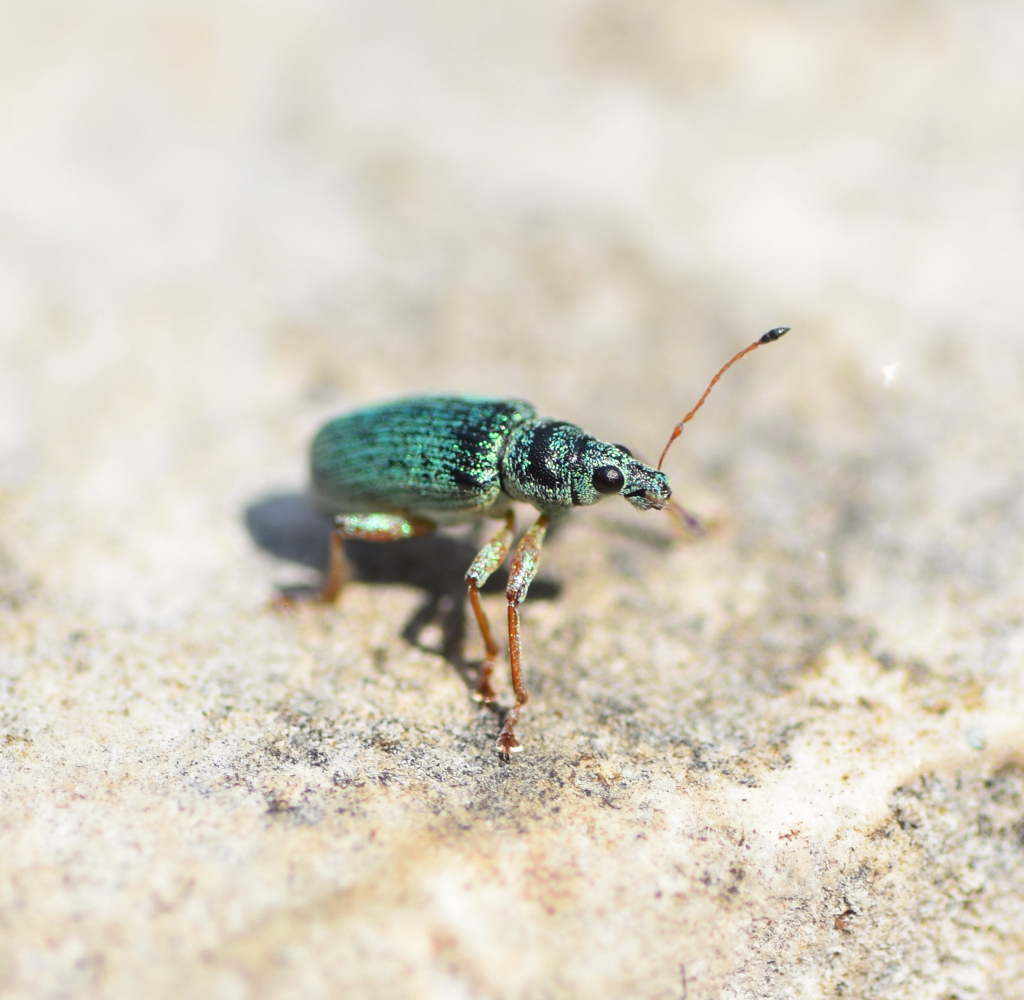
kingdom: Animalia
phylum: Arthropoda
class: Insecta
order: Coleoptera
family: Curculionidae
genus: Polydrusus
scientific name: Polydrusus formosus
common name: Weevil
